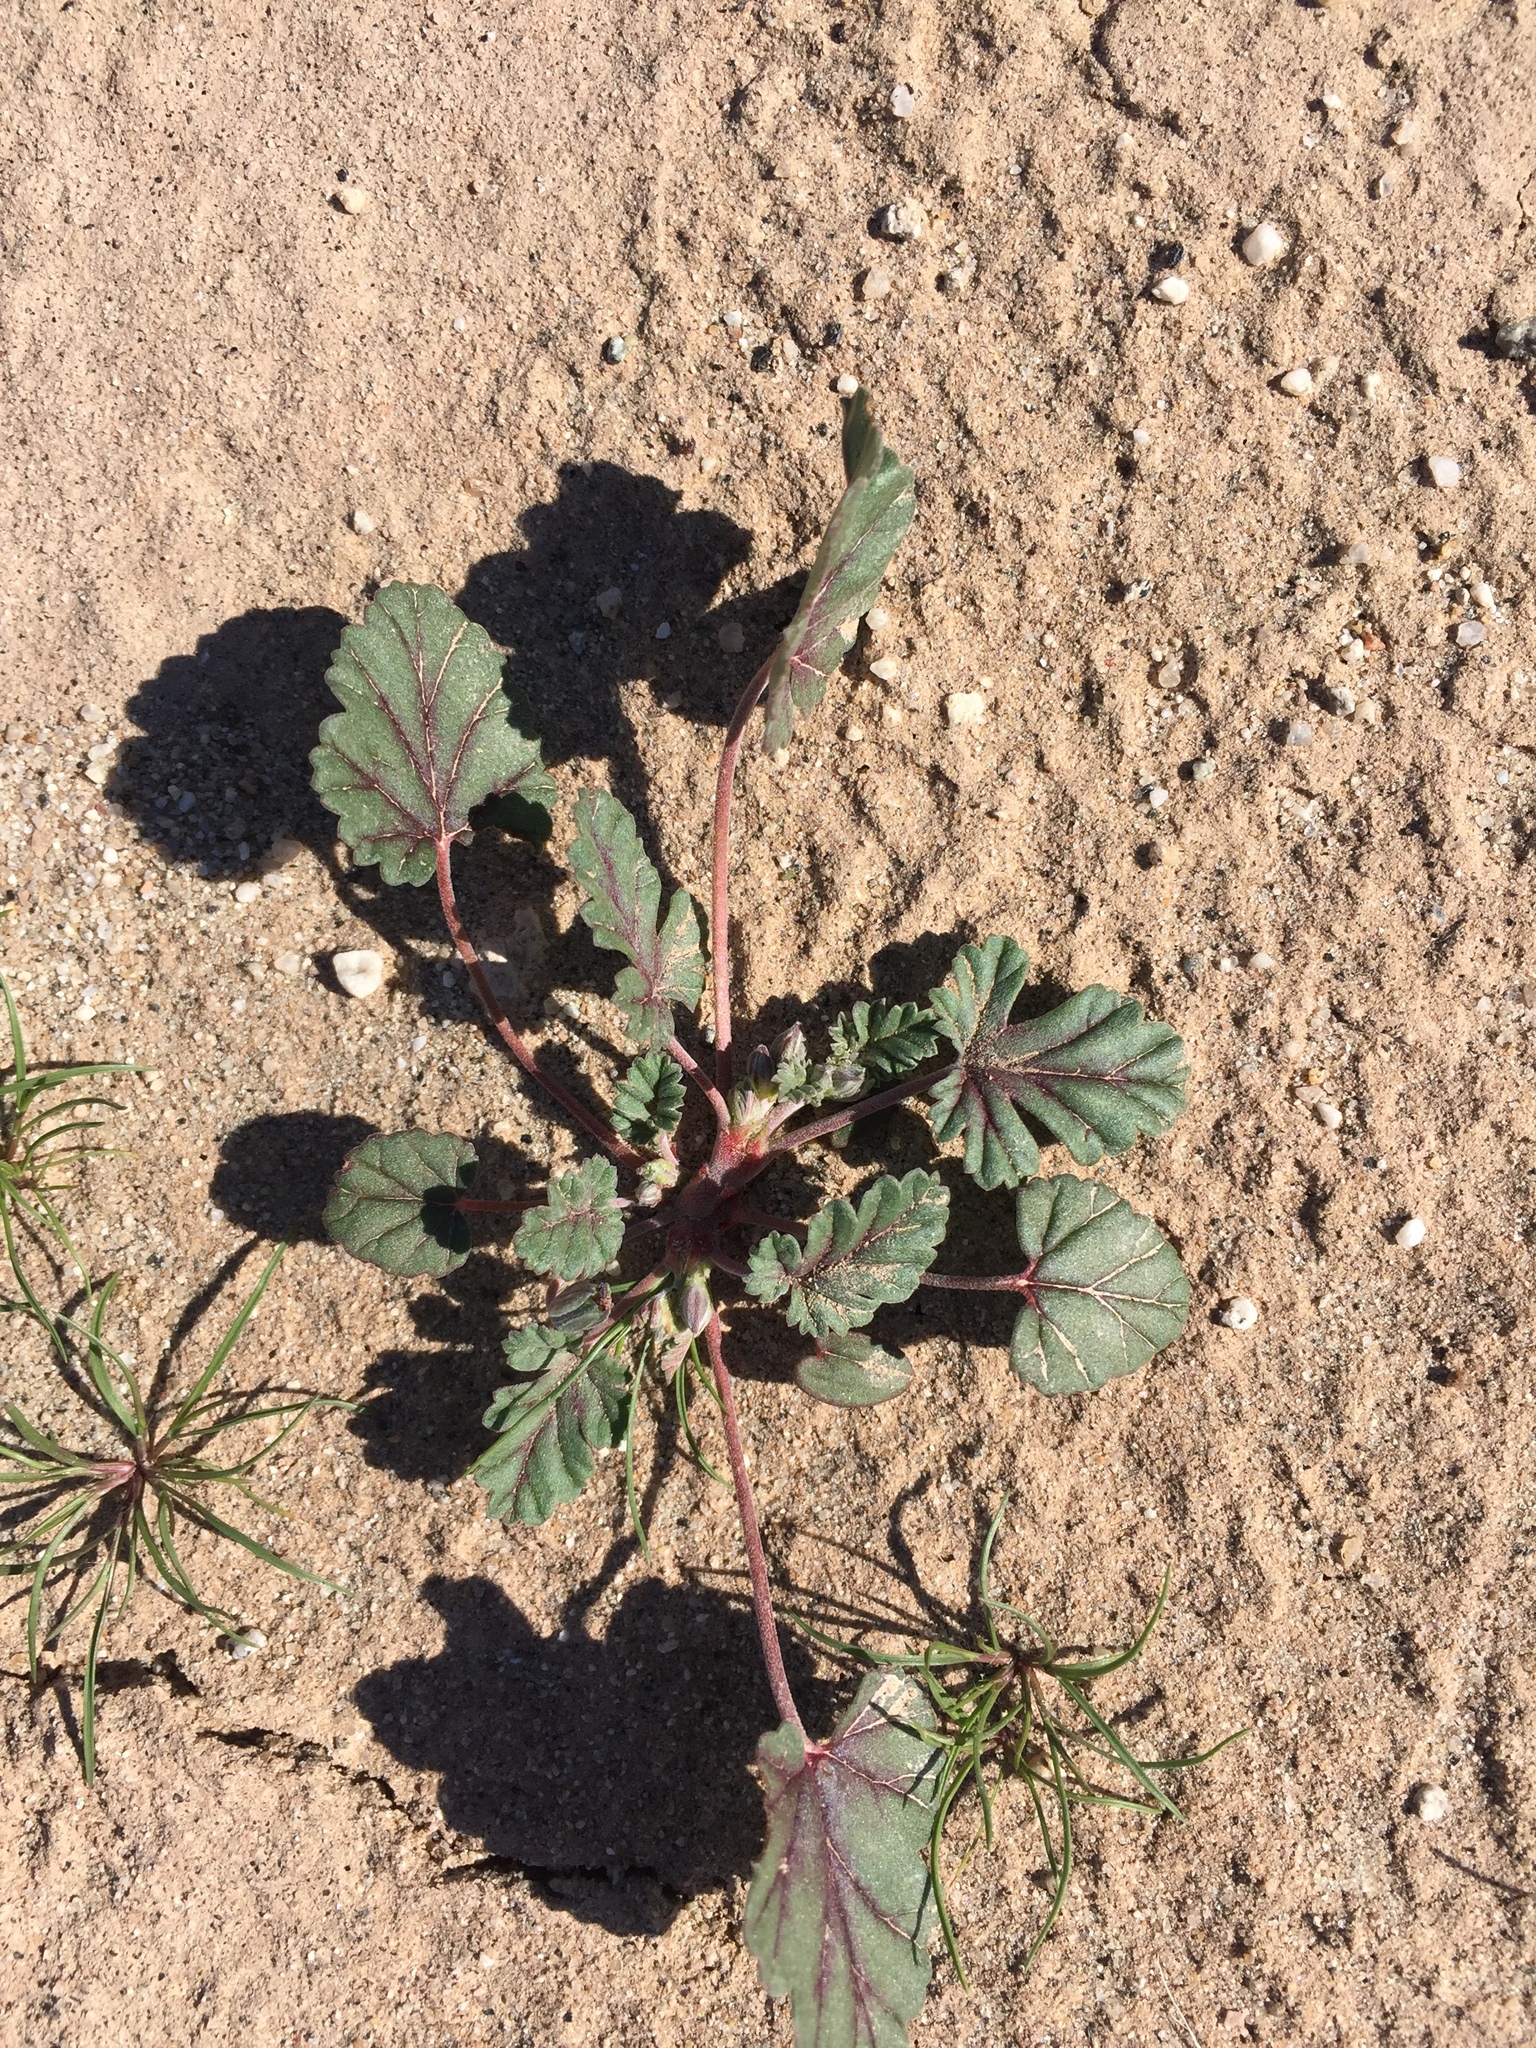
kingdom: Plantae
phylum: Tracheophyta
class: Magnoliopsida
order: Geraniales
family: Geraniaceae
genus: Erodium
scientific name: Erodium texanum
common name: Texas stork's-bill
